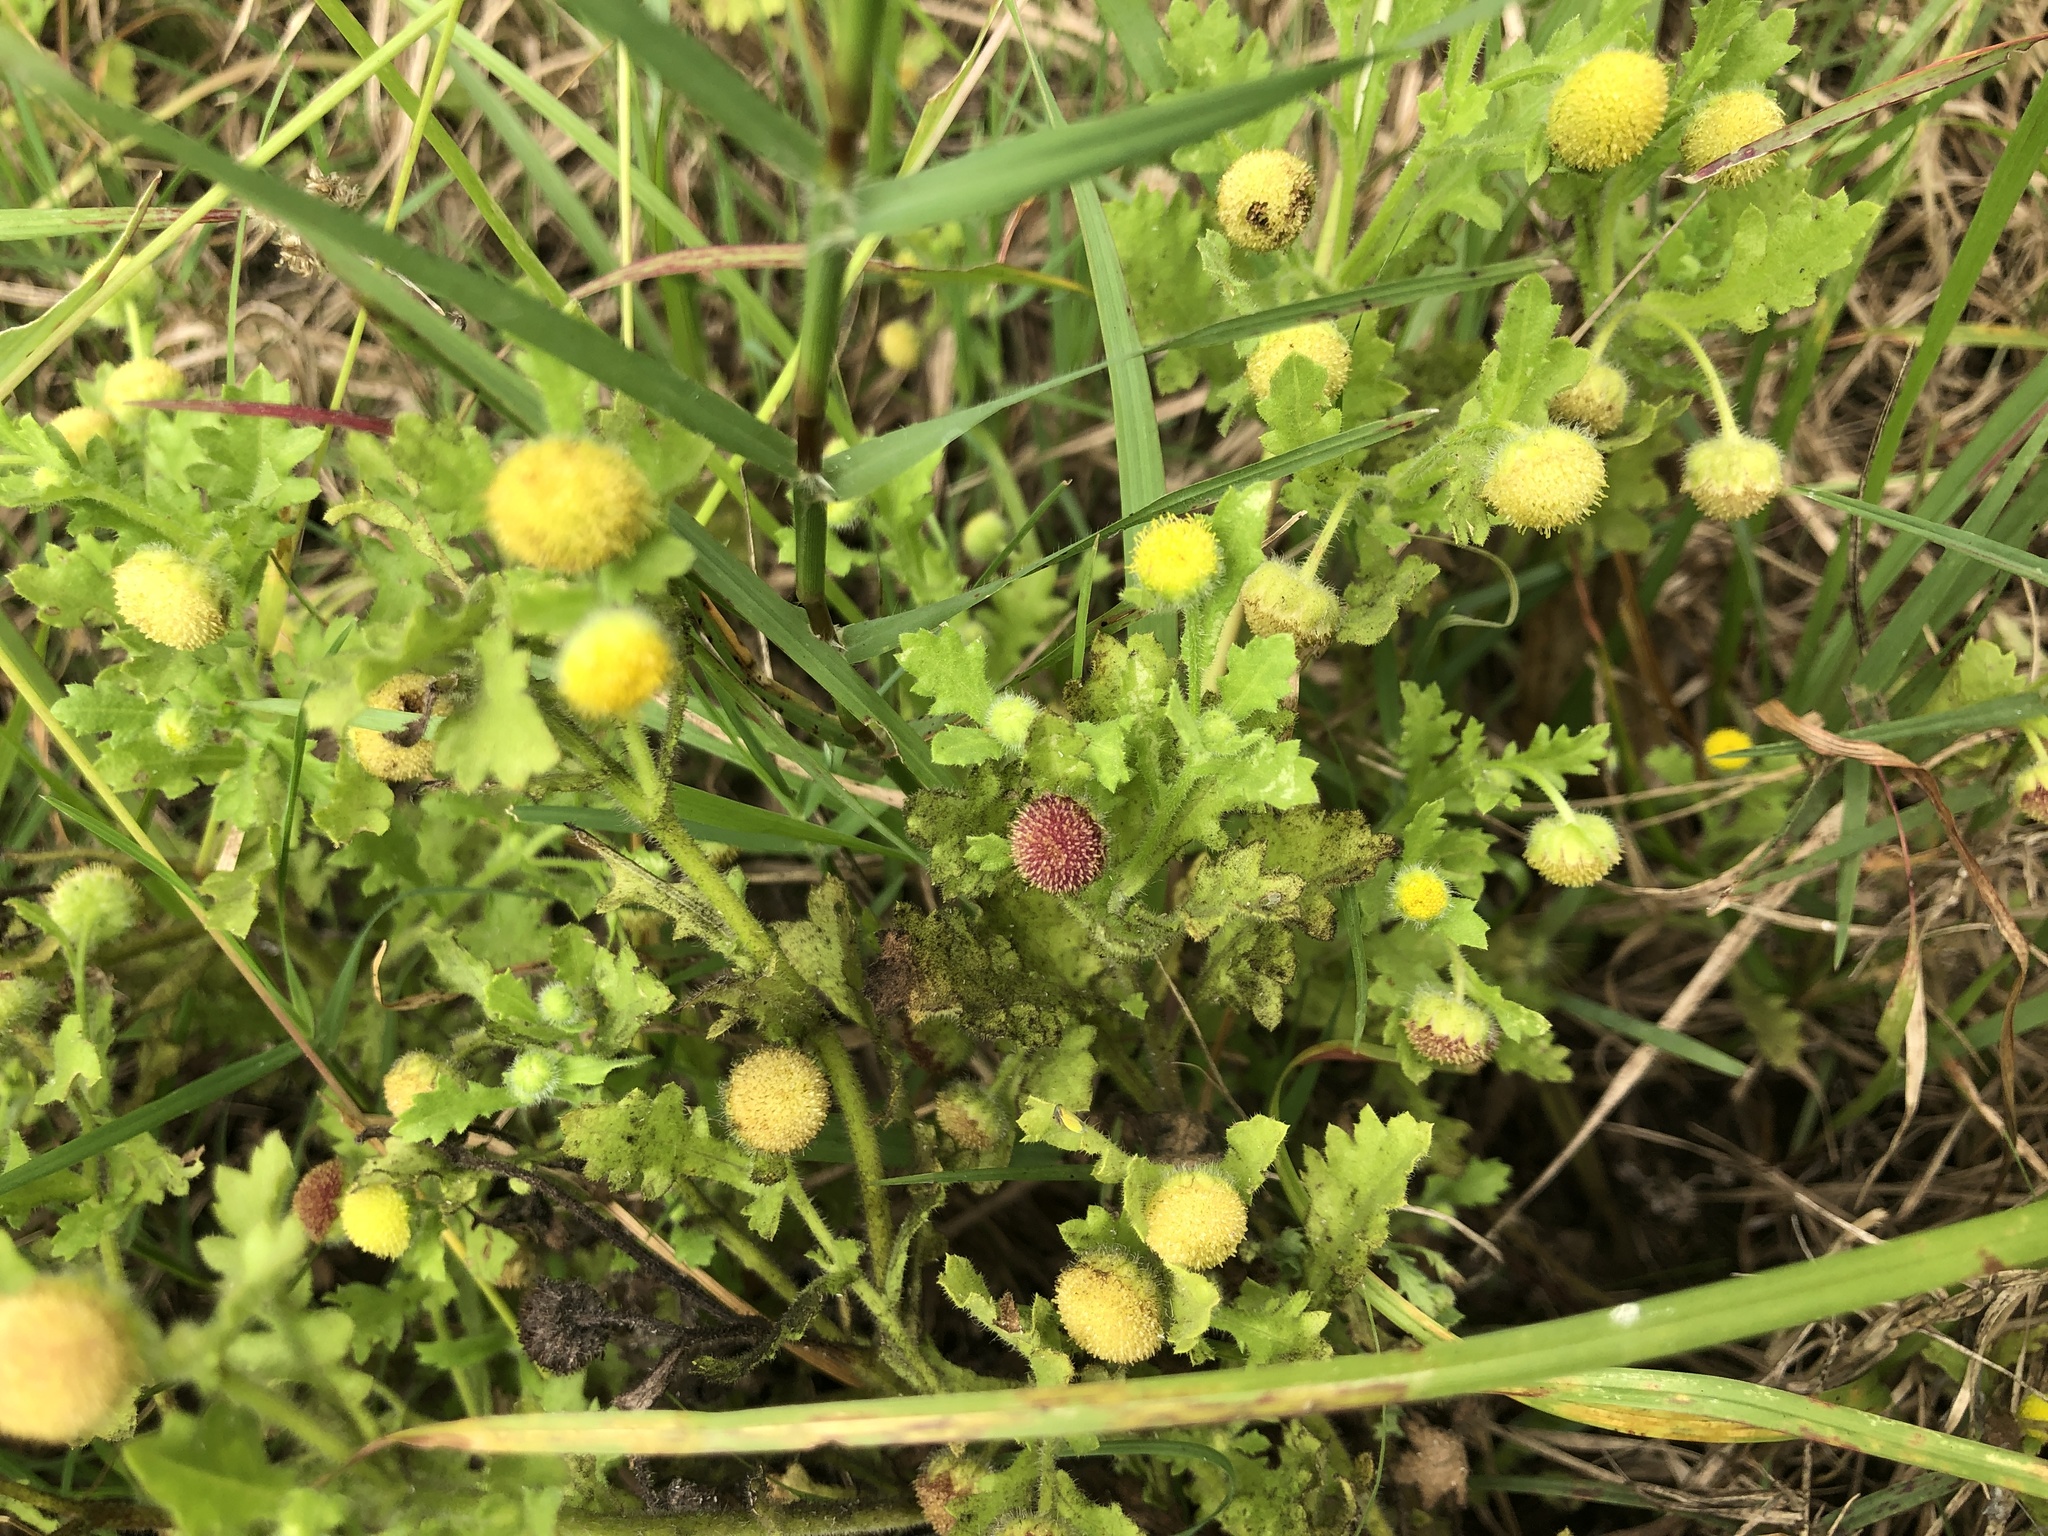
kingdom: Plantae
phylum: Tracheophyta
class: Magnoliopsida
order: Asterales
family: Asteraceae
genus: Grangea
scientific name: Grangea maderaspatana
